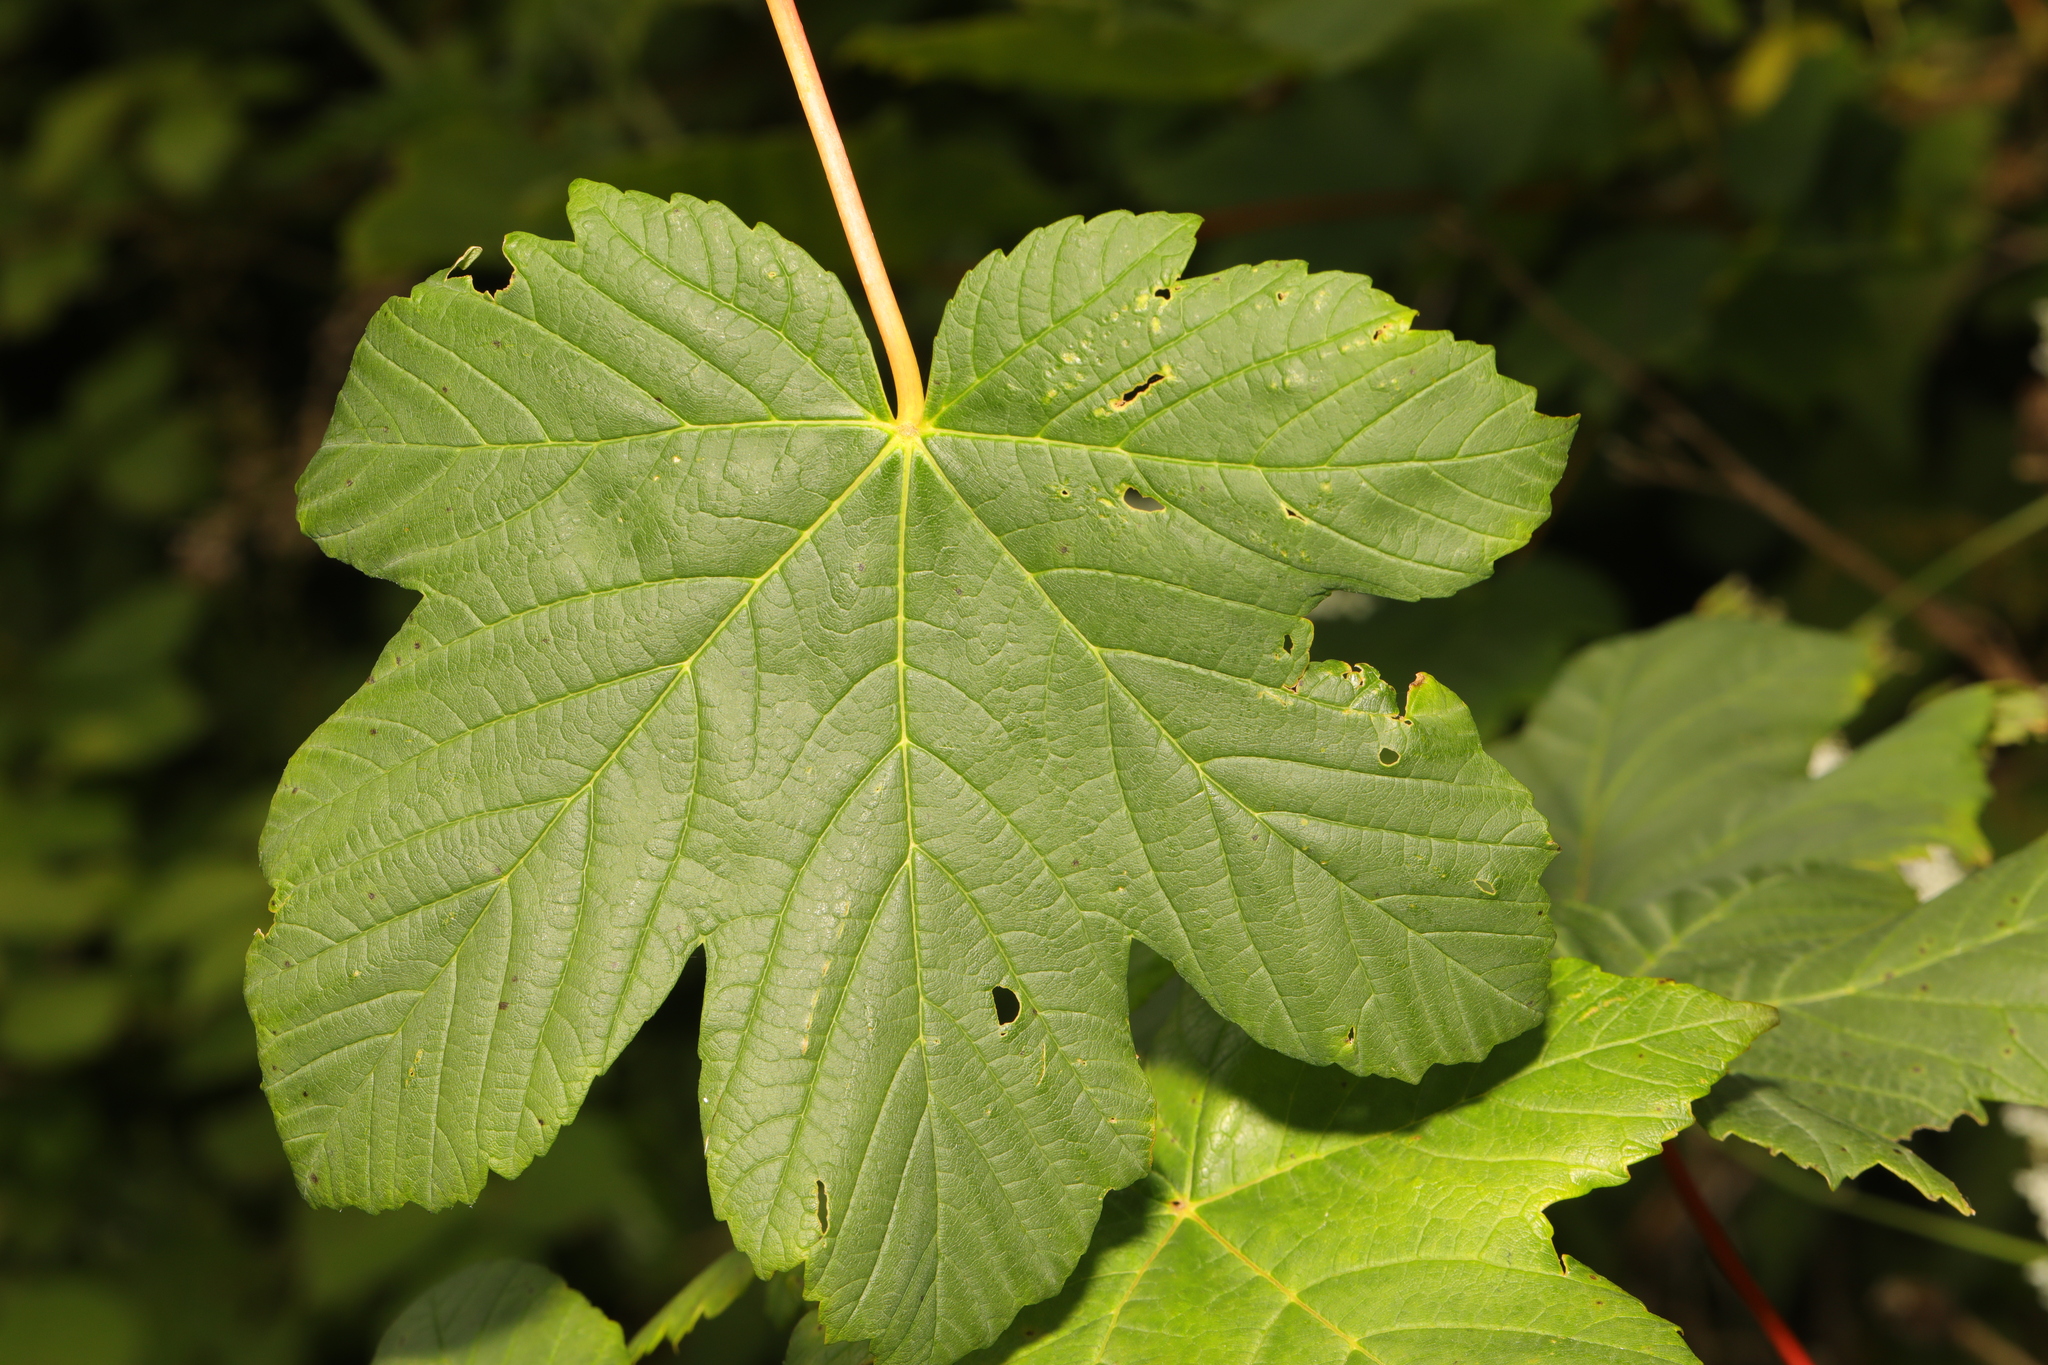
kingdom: Plantae
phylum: Tracheophyta
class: Magnoliopsida
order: Sapindales
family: Sapindaceae
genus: Acer
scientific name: Acer pseudoplatanus
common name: Sycamore
